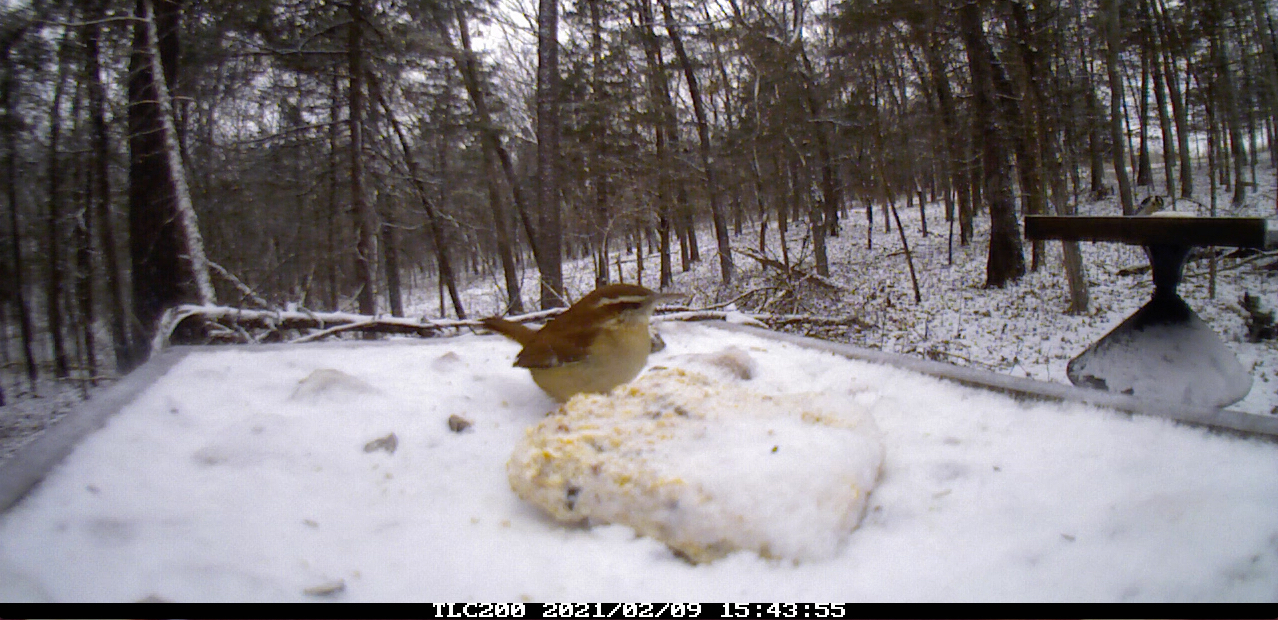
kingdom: Animalia
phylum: Chordata
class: Aves
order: Passeriformes
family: Troglodytidae
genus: Thryothorus
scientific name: Thryothorus ludovicianus
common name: Carolina wren
